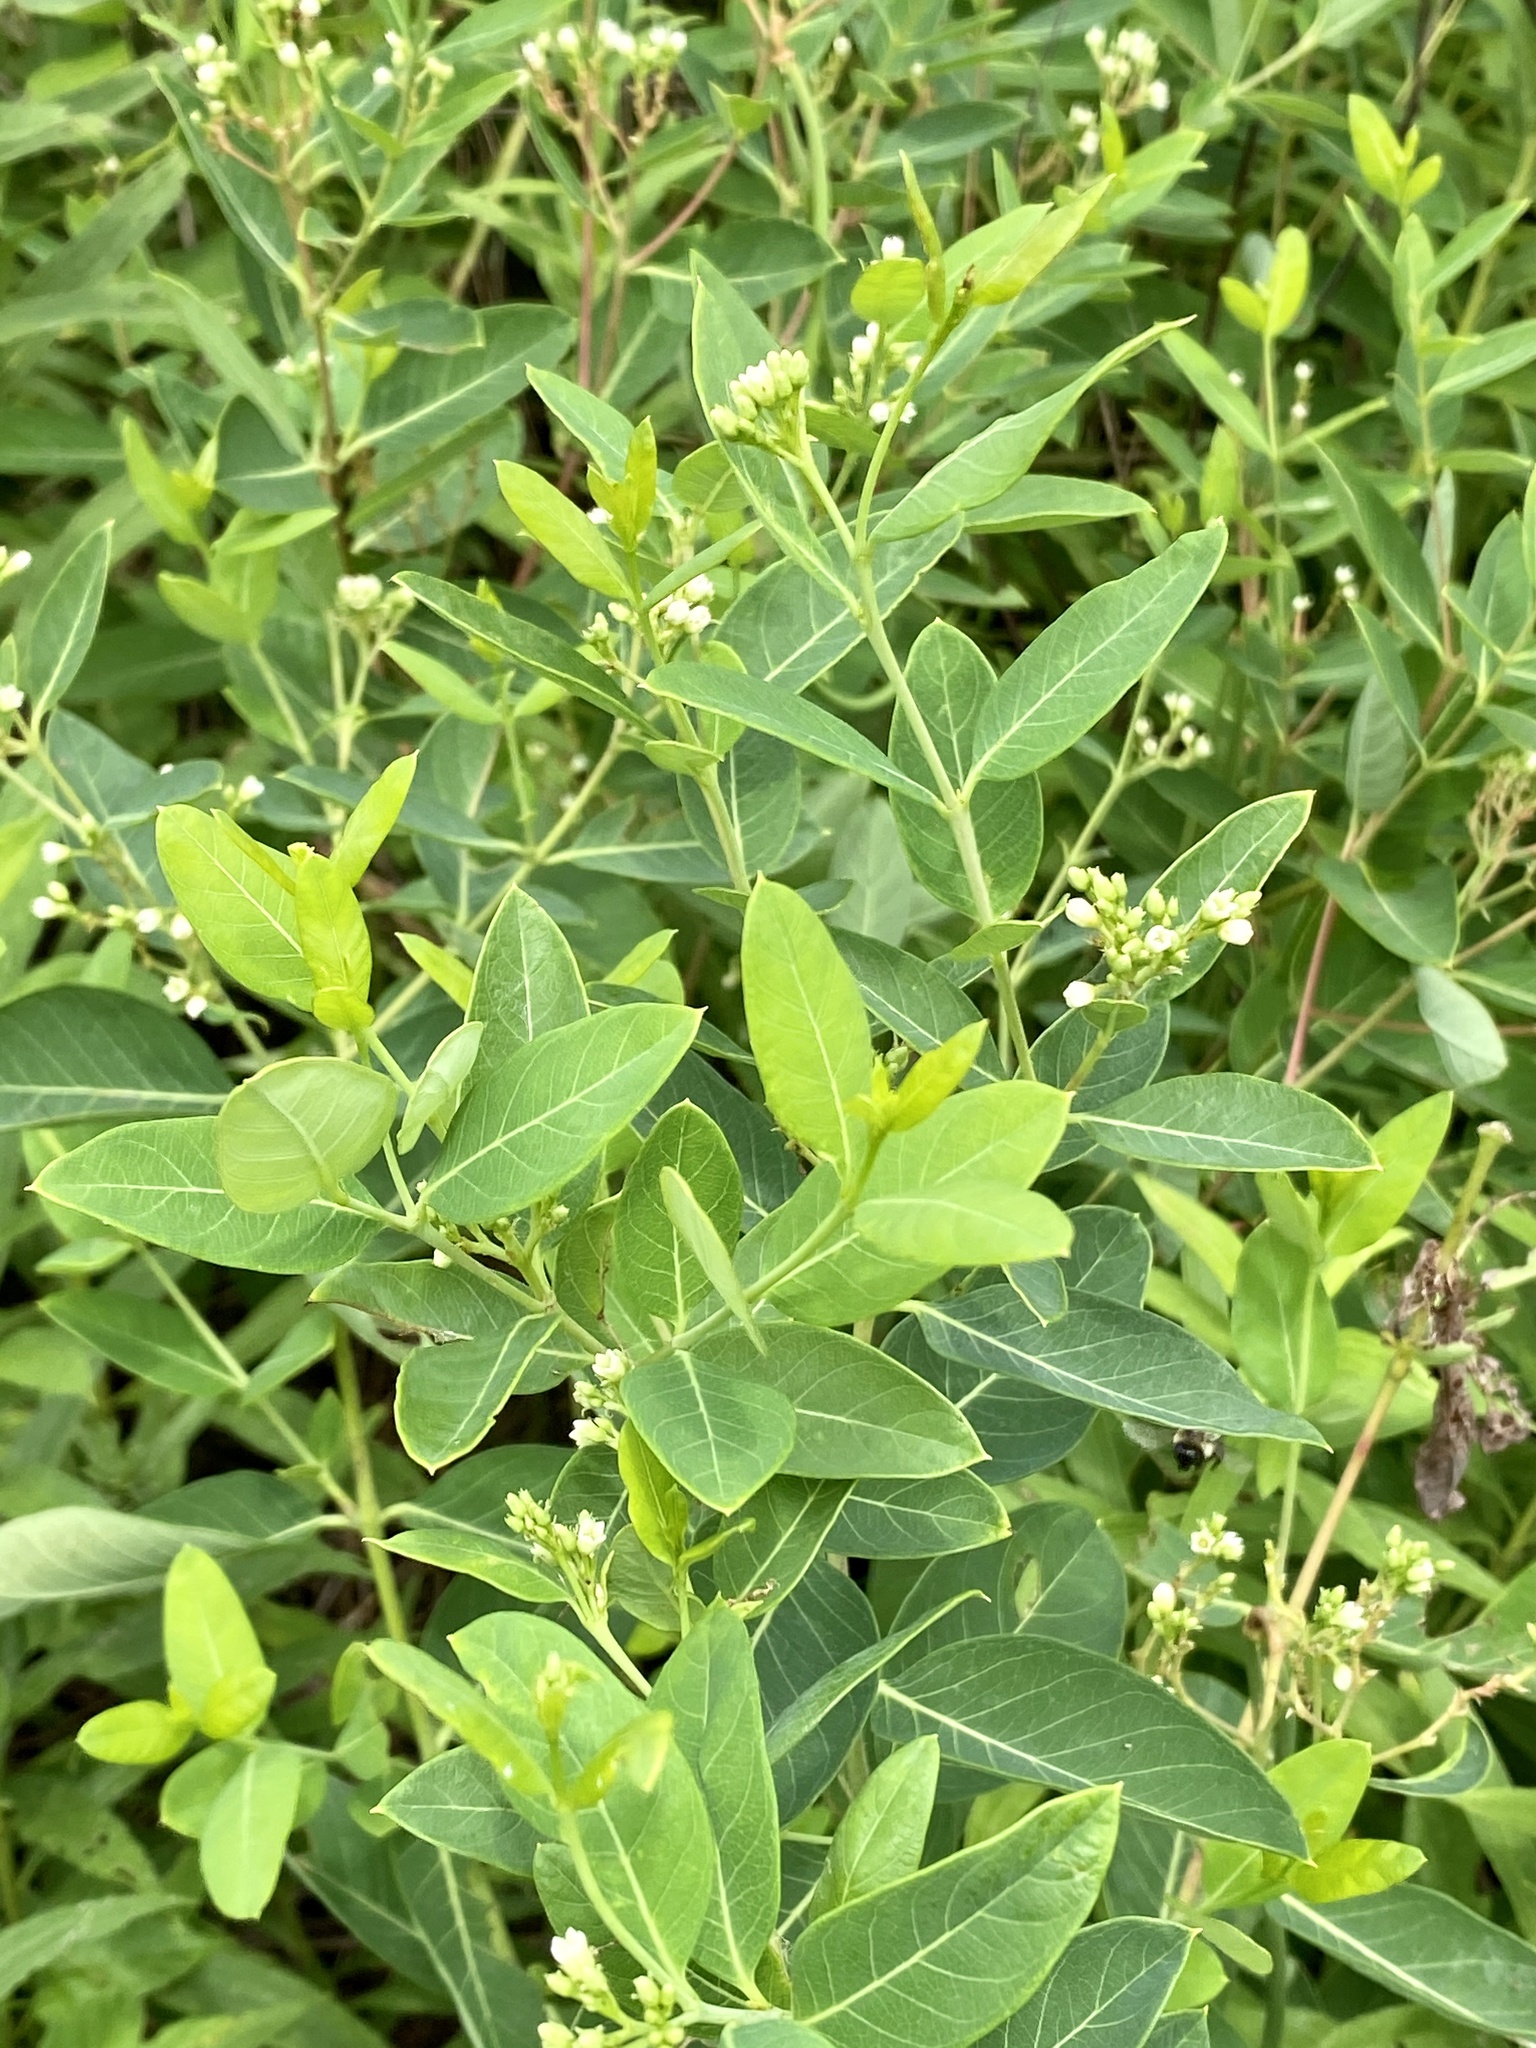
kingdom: Plantae
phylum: Tracheophyta
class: Magnoliopsida
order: Gentianales
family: Apocynaceae
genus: Apocynum
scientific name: Apocynum cannabinum
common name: Hemp dogbane
